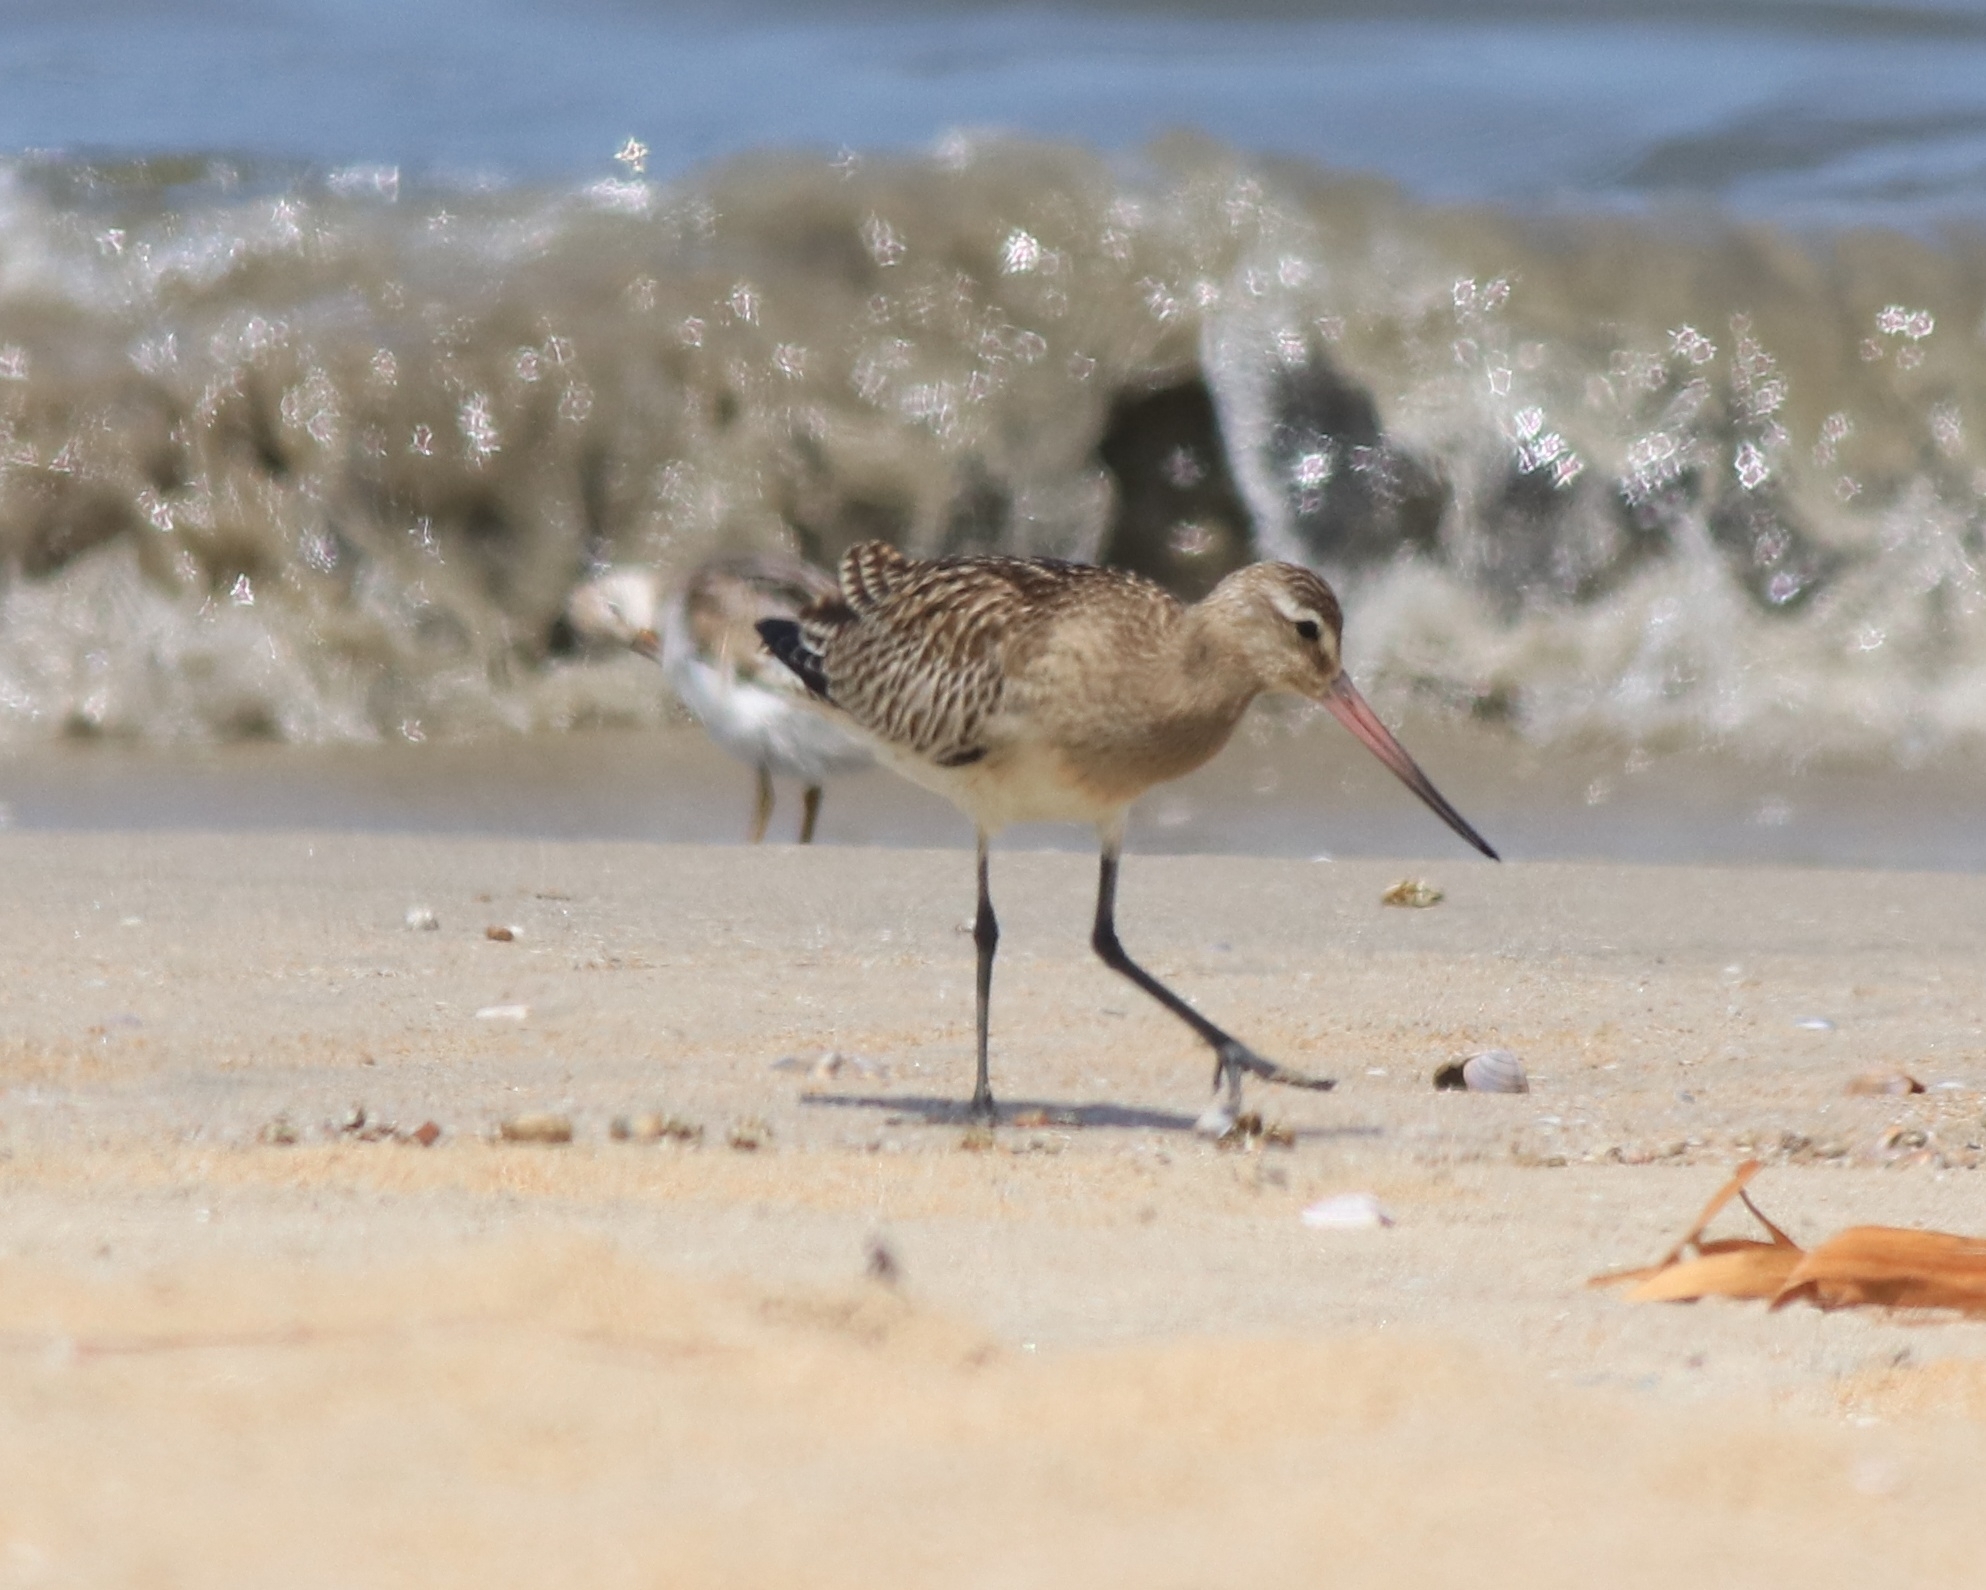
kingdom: Animalia
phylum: Chordata
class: Aves
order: Charadriiformes
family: Scolopacidae
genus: Limosa
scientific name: Limosa lapponica
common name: Bar-tailed godwit
